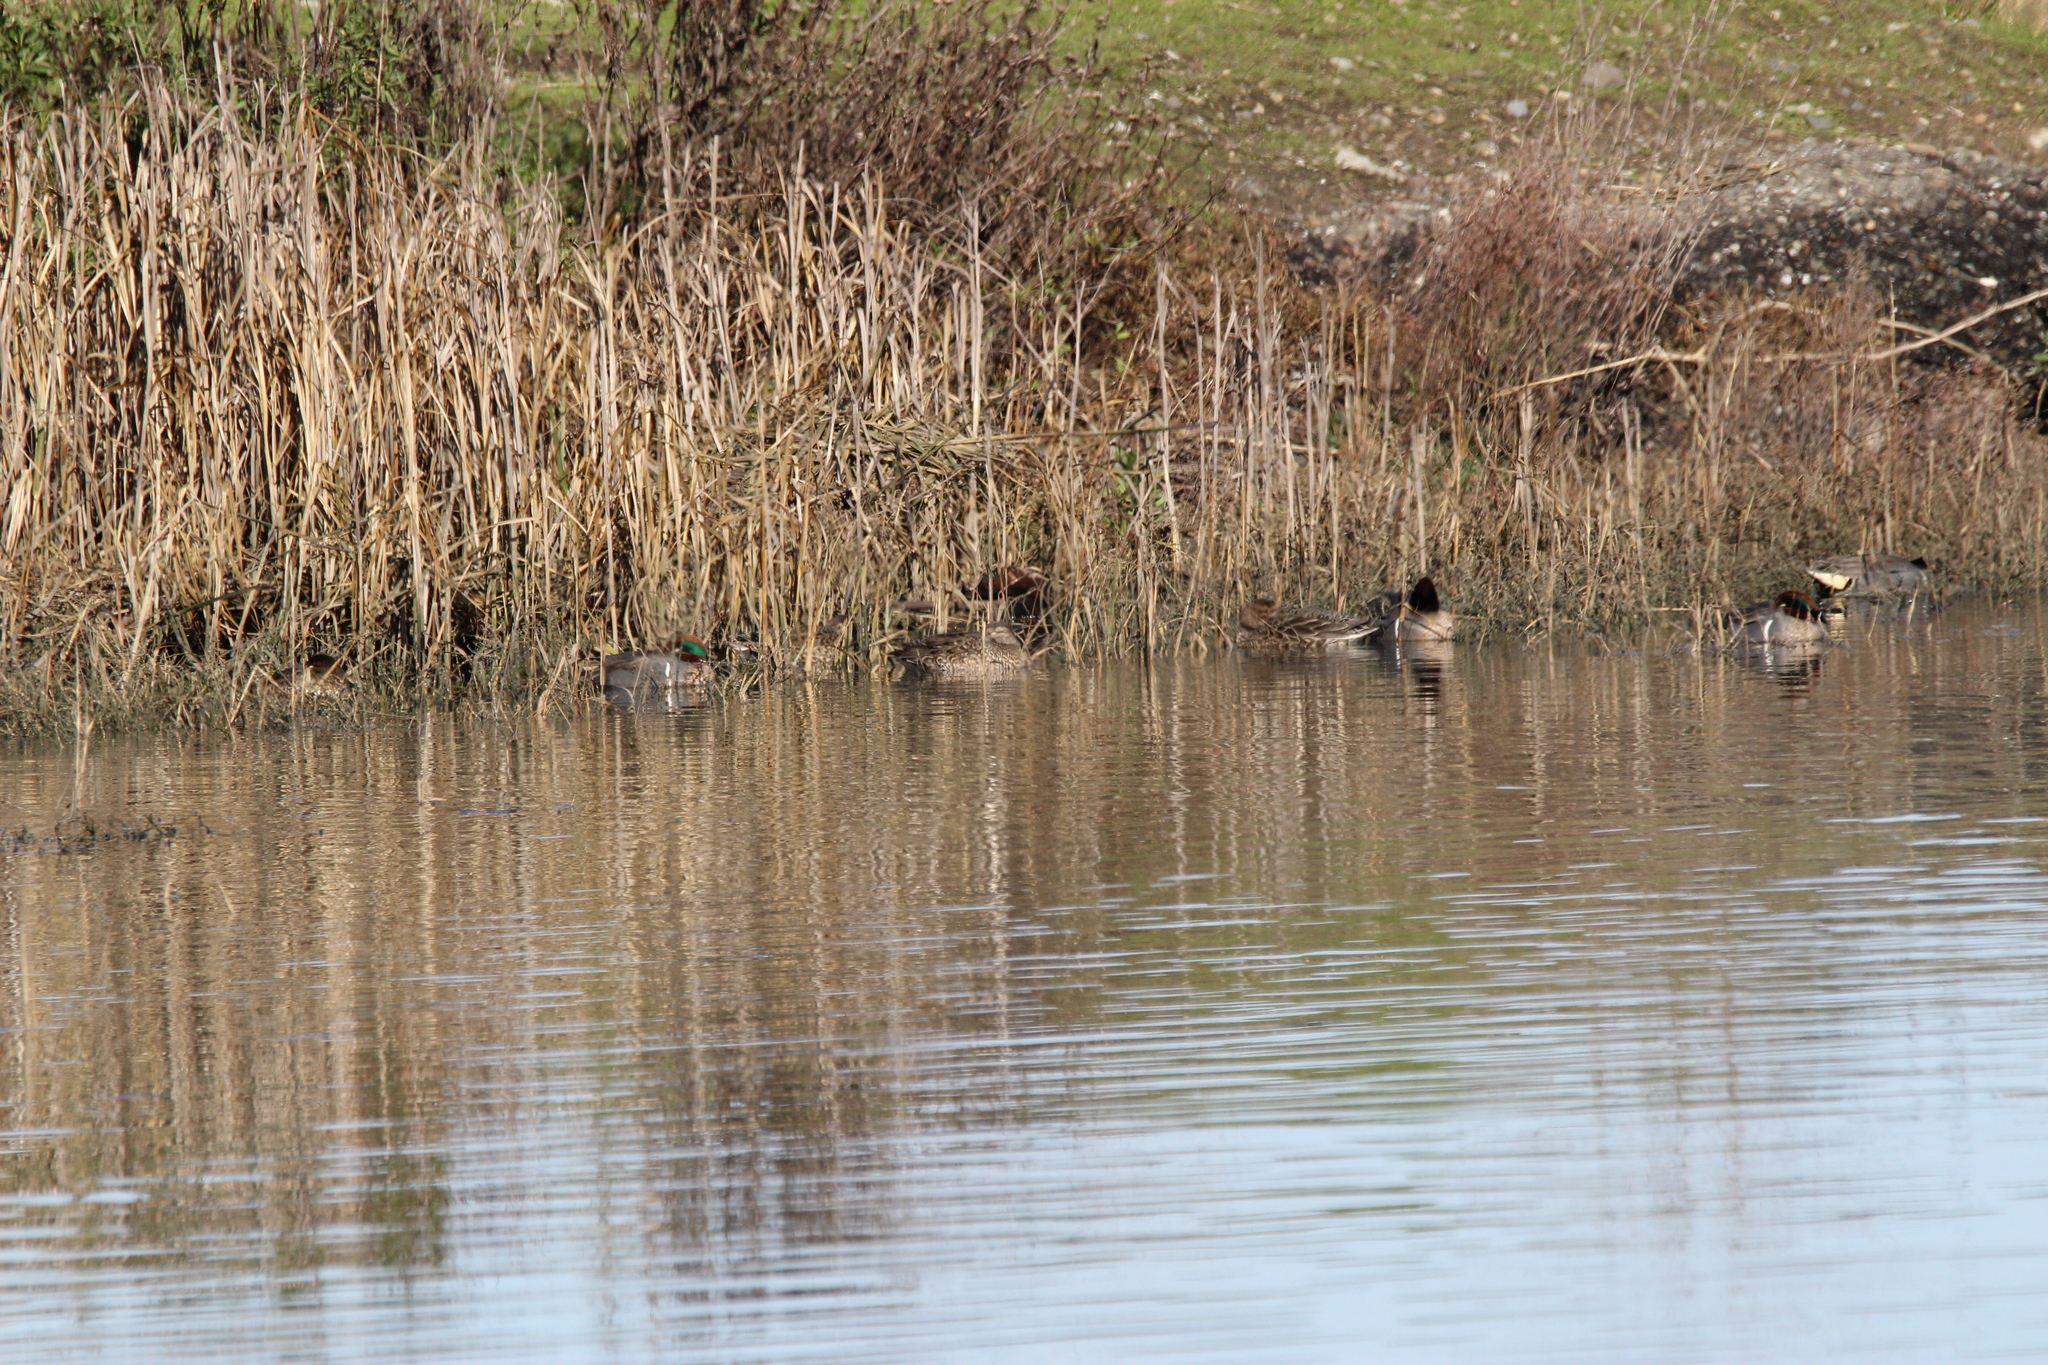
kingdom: Animalia
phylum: Chordata
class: Aves
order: Anseriformes
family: Anatidae
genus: Anas
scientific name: Anas crecca
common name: Eurasian teal
